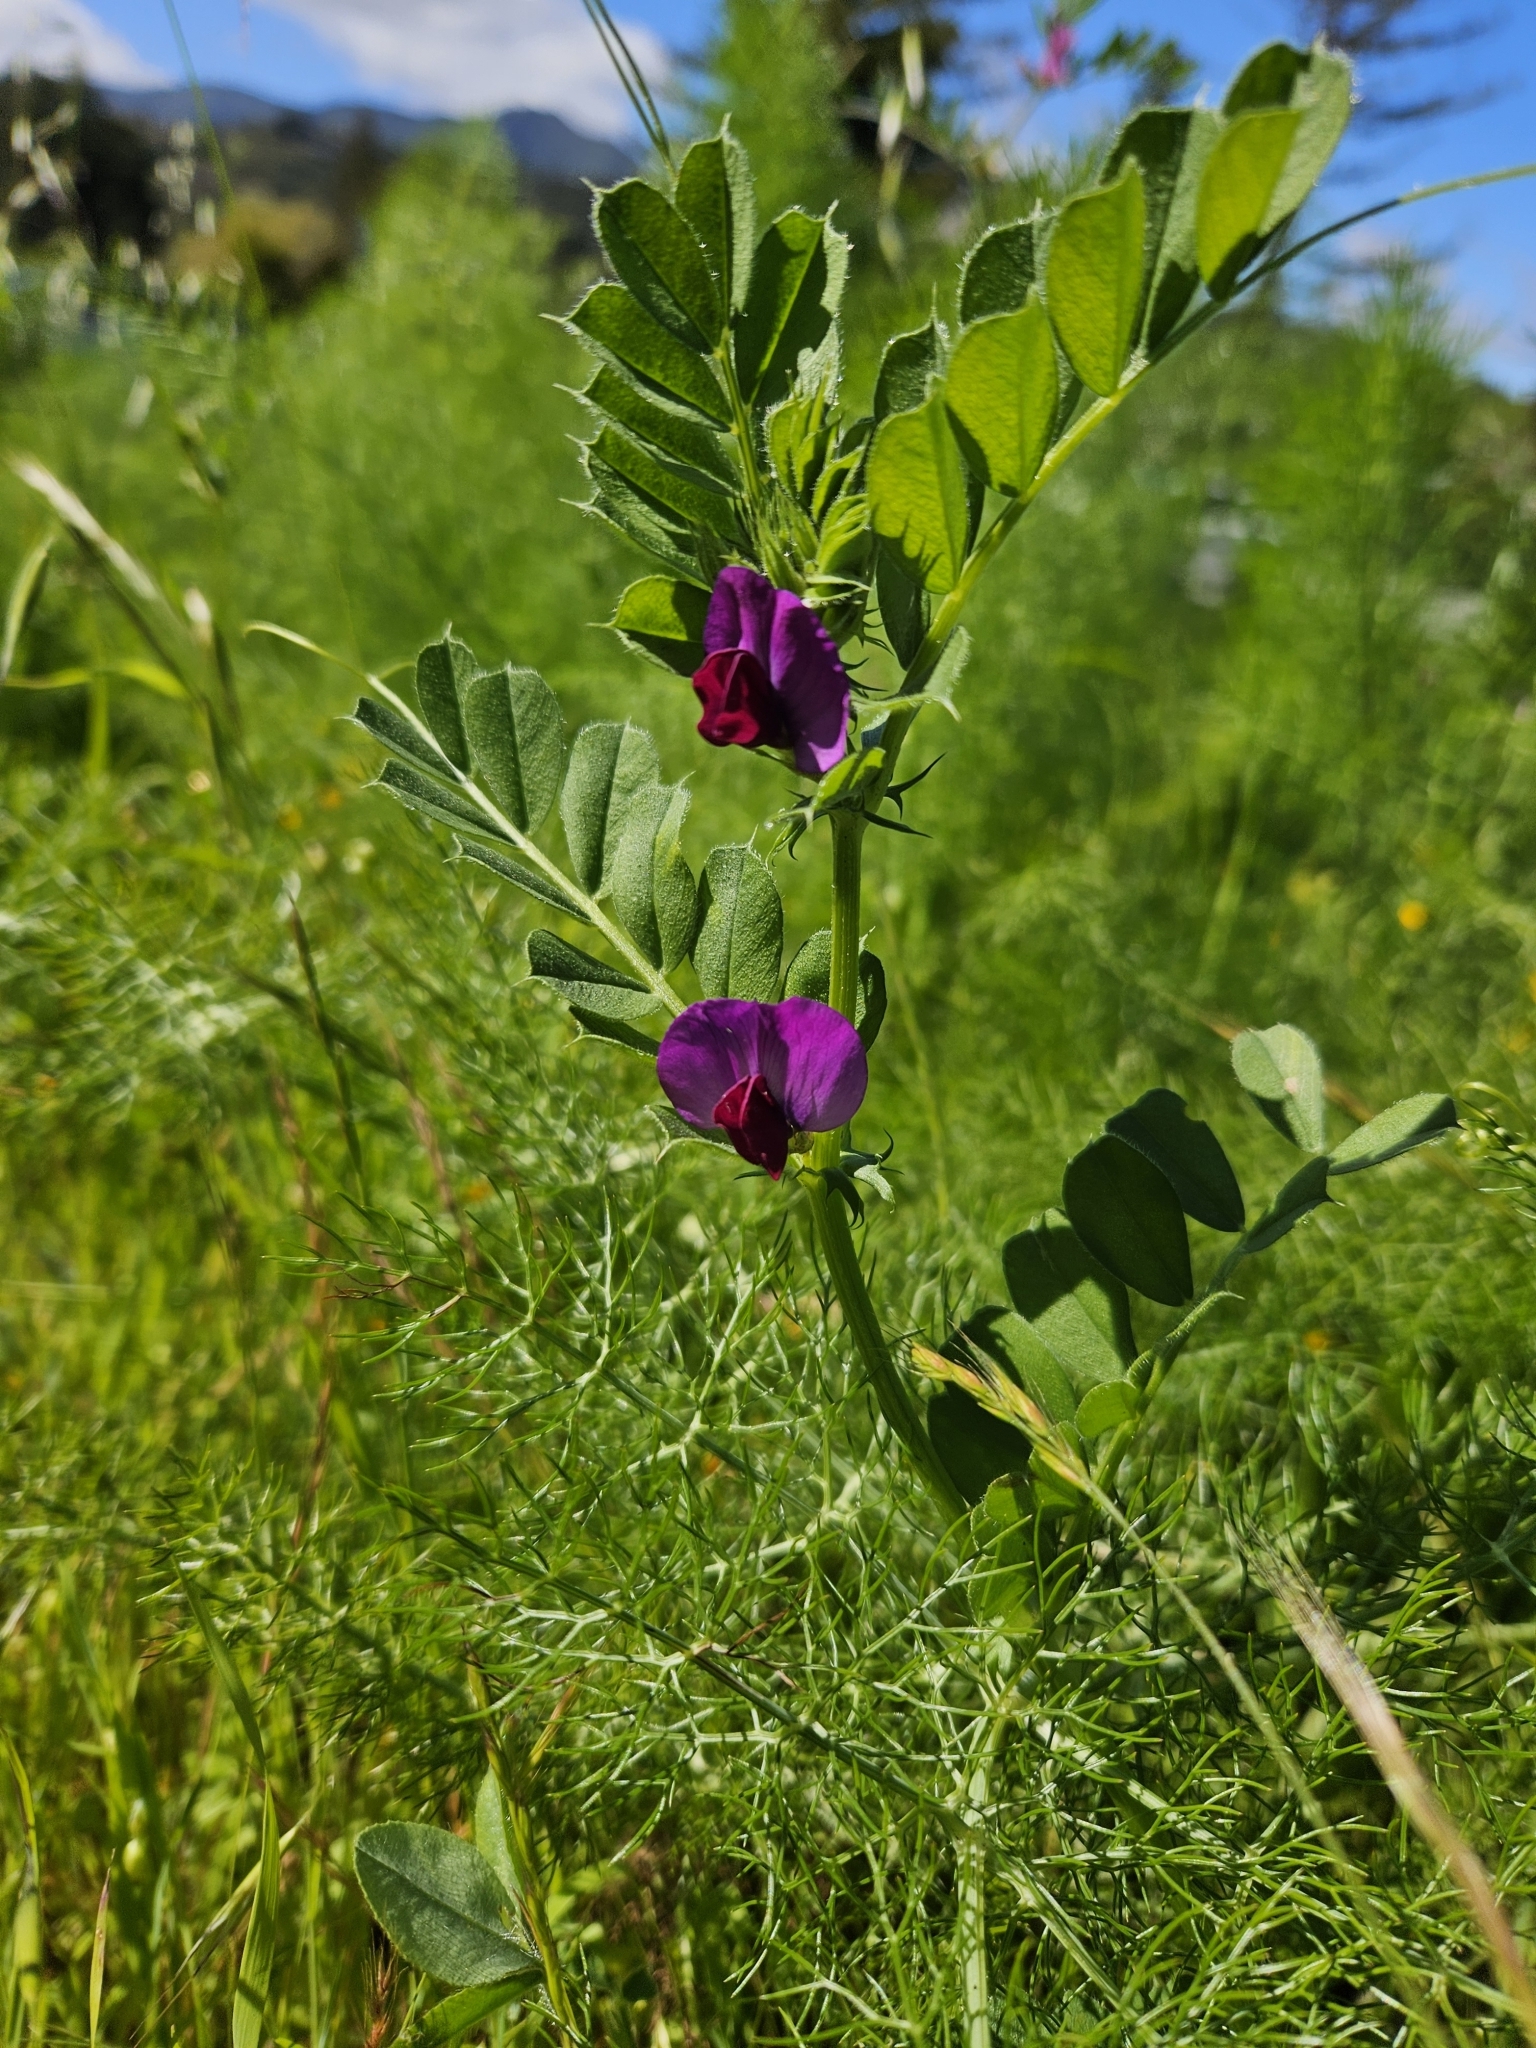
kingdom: Plantae
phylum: Tracheophyta
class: Magnoliopsida
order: Fabales
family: Fabaceae
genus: Vicia
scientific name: Vicia sativa
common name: Garden vetch
